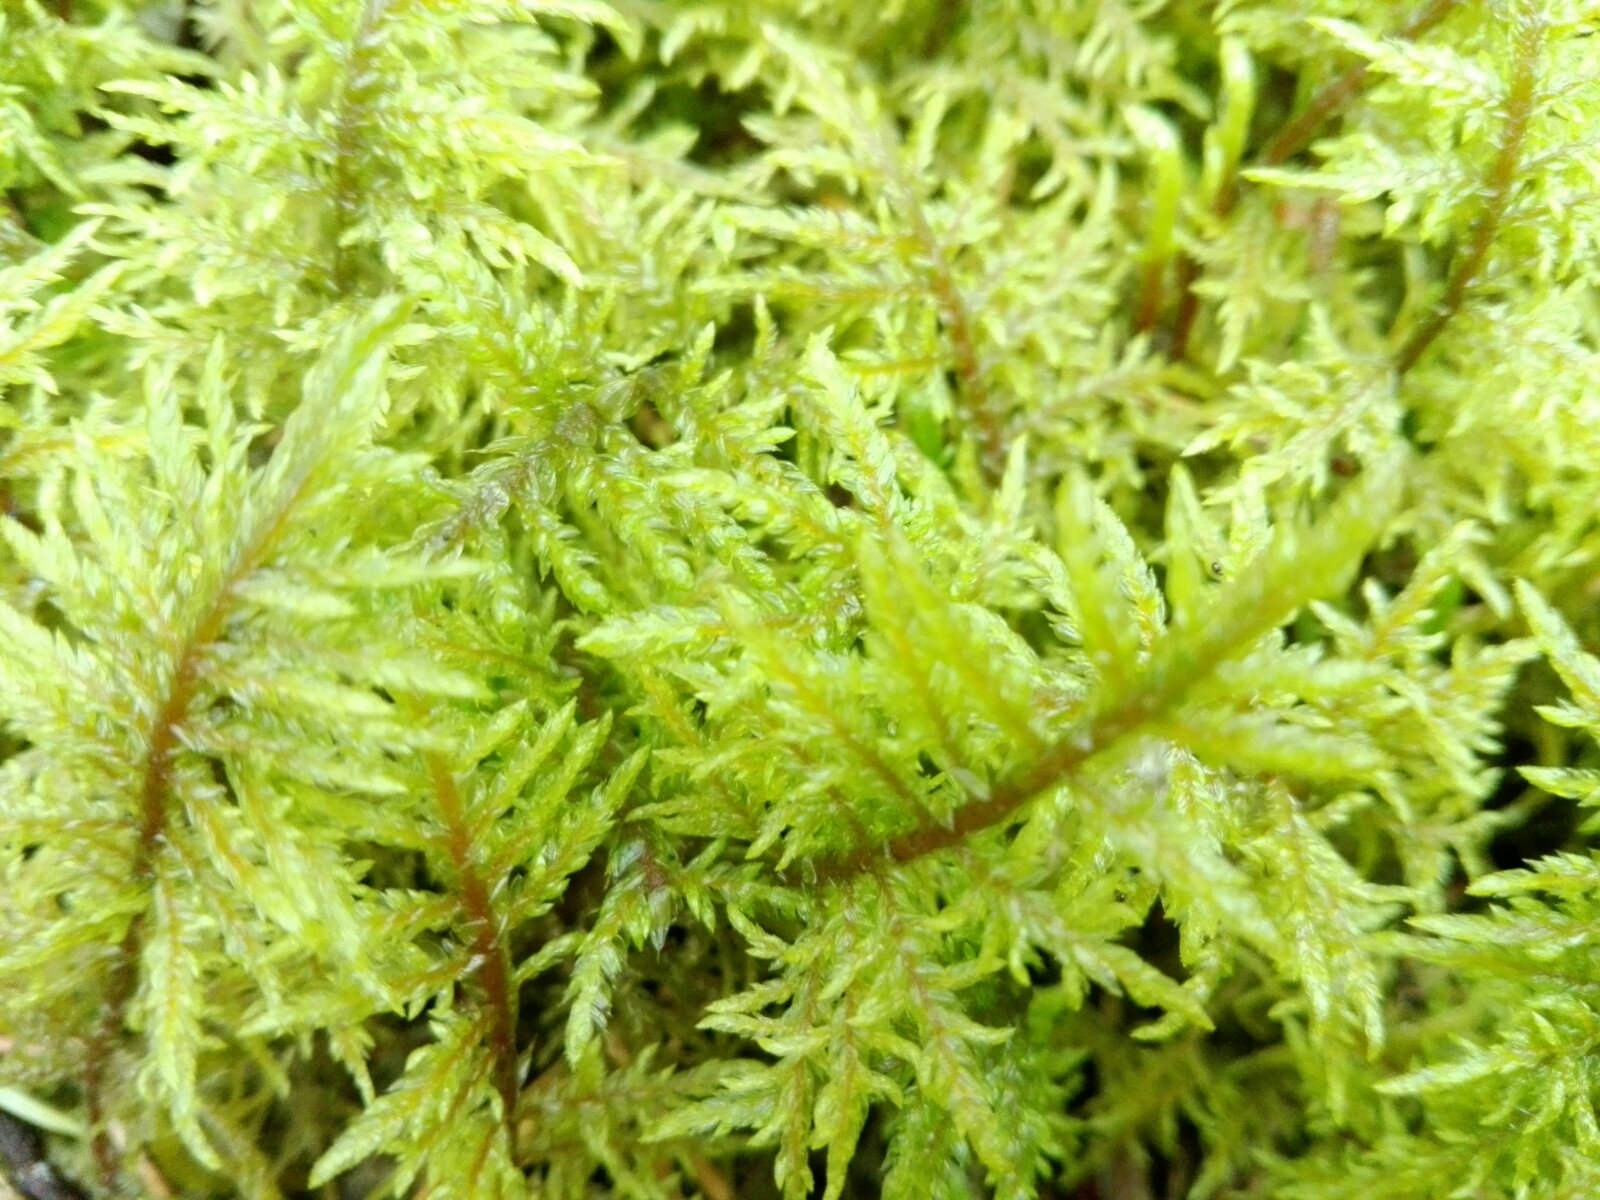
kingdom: Plantae
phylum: Bryophyta
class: Bryopsida
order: Hypnales
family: Hylocomiaceae
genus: Hylocomium
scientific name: Hylocomium splendens
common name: Stairstep moss
